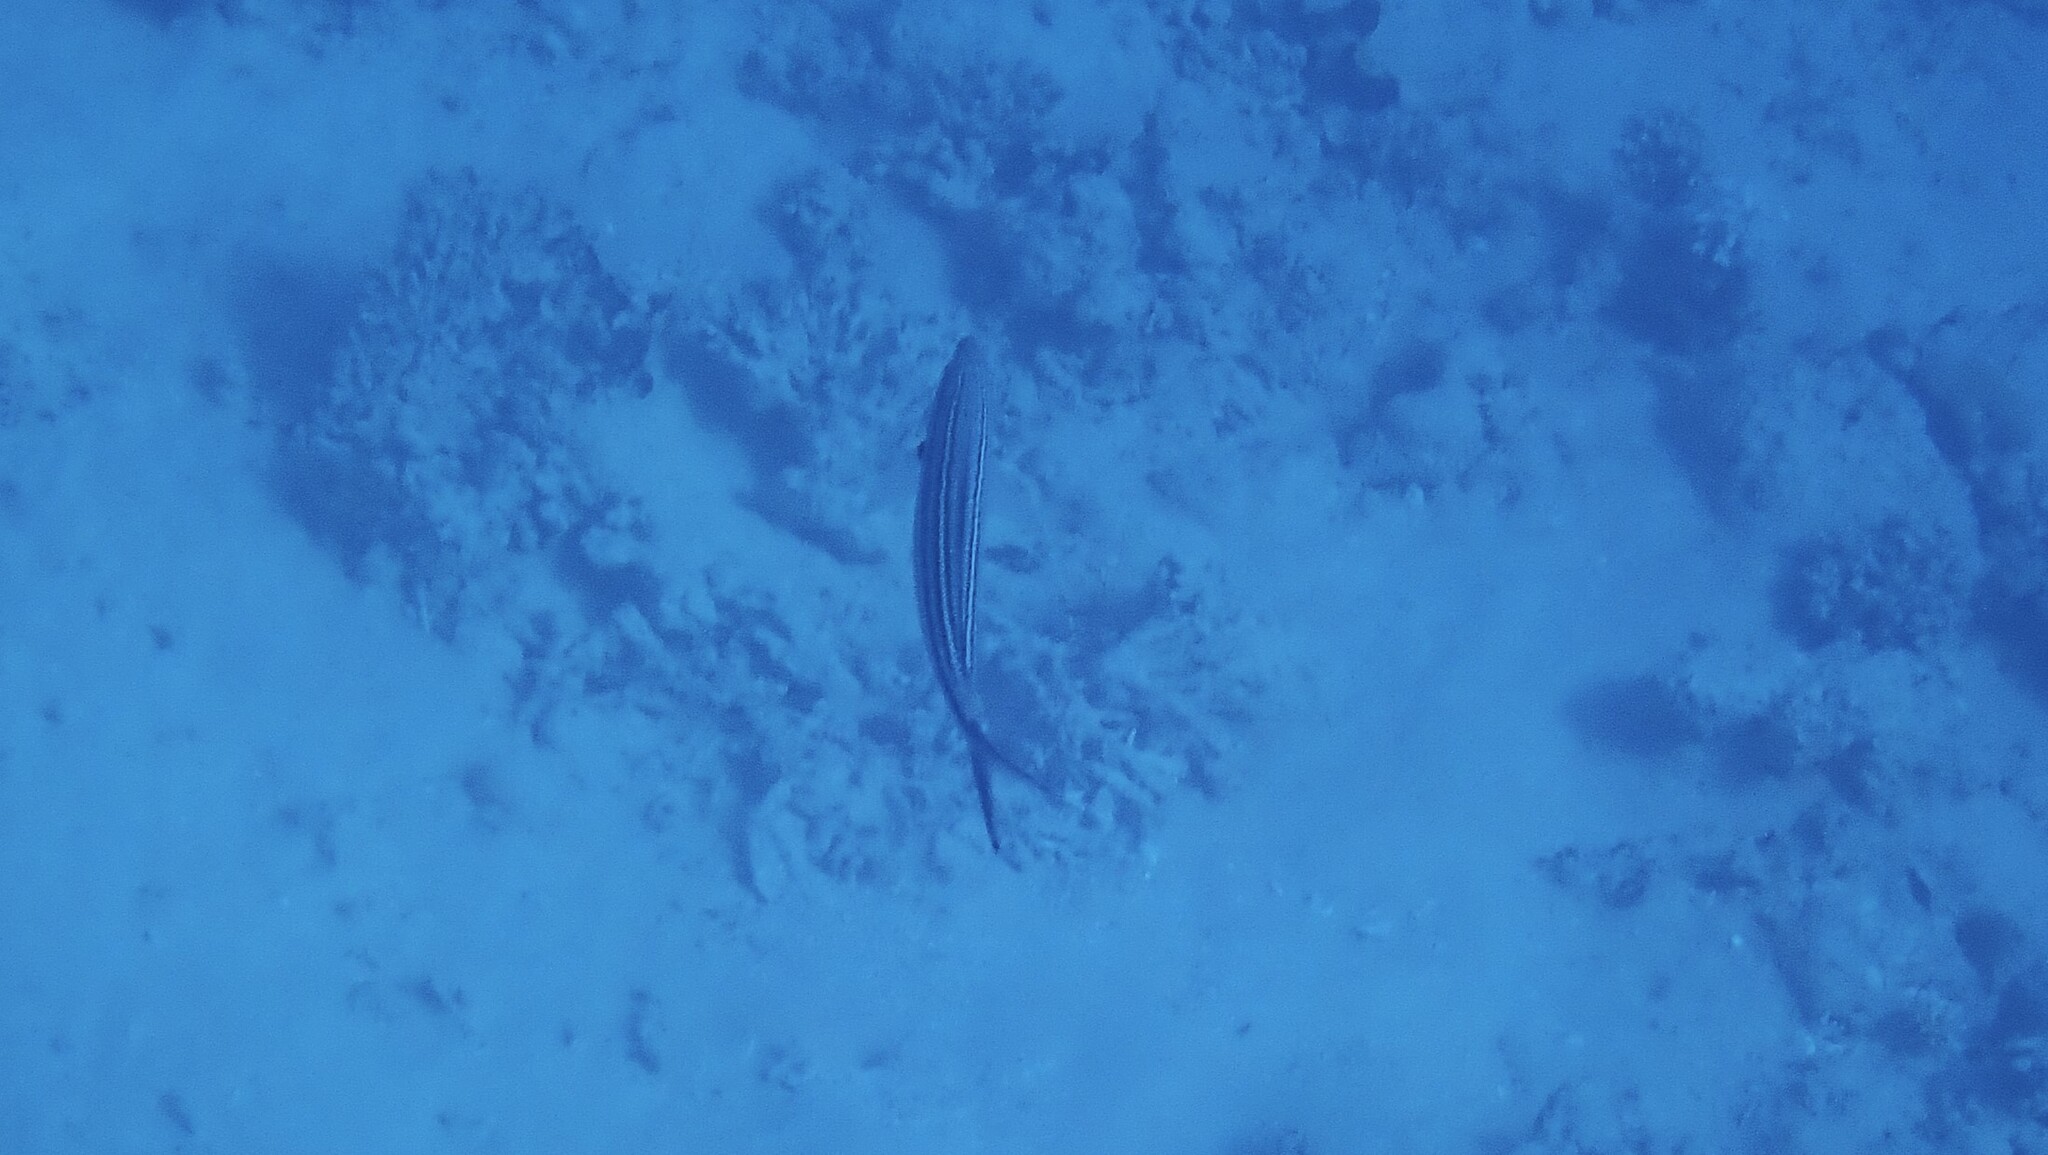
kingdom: Animalia
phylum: Chordata
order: Perciformes
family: Caesionidae
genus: Caesio
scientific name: Caesio striata
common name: Striated fusilier
